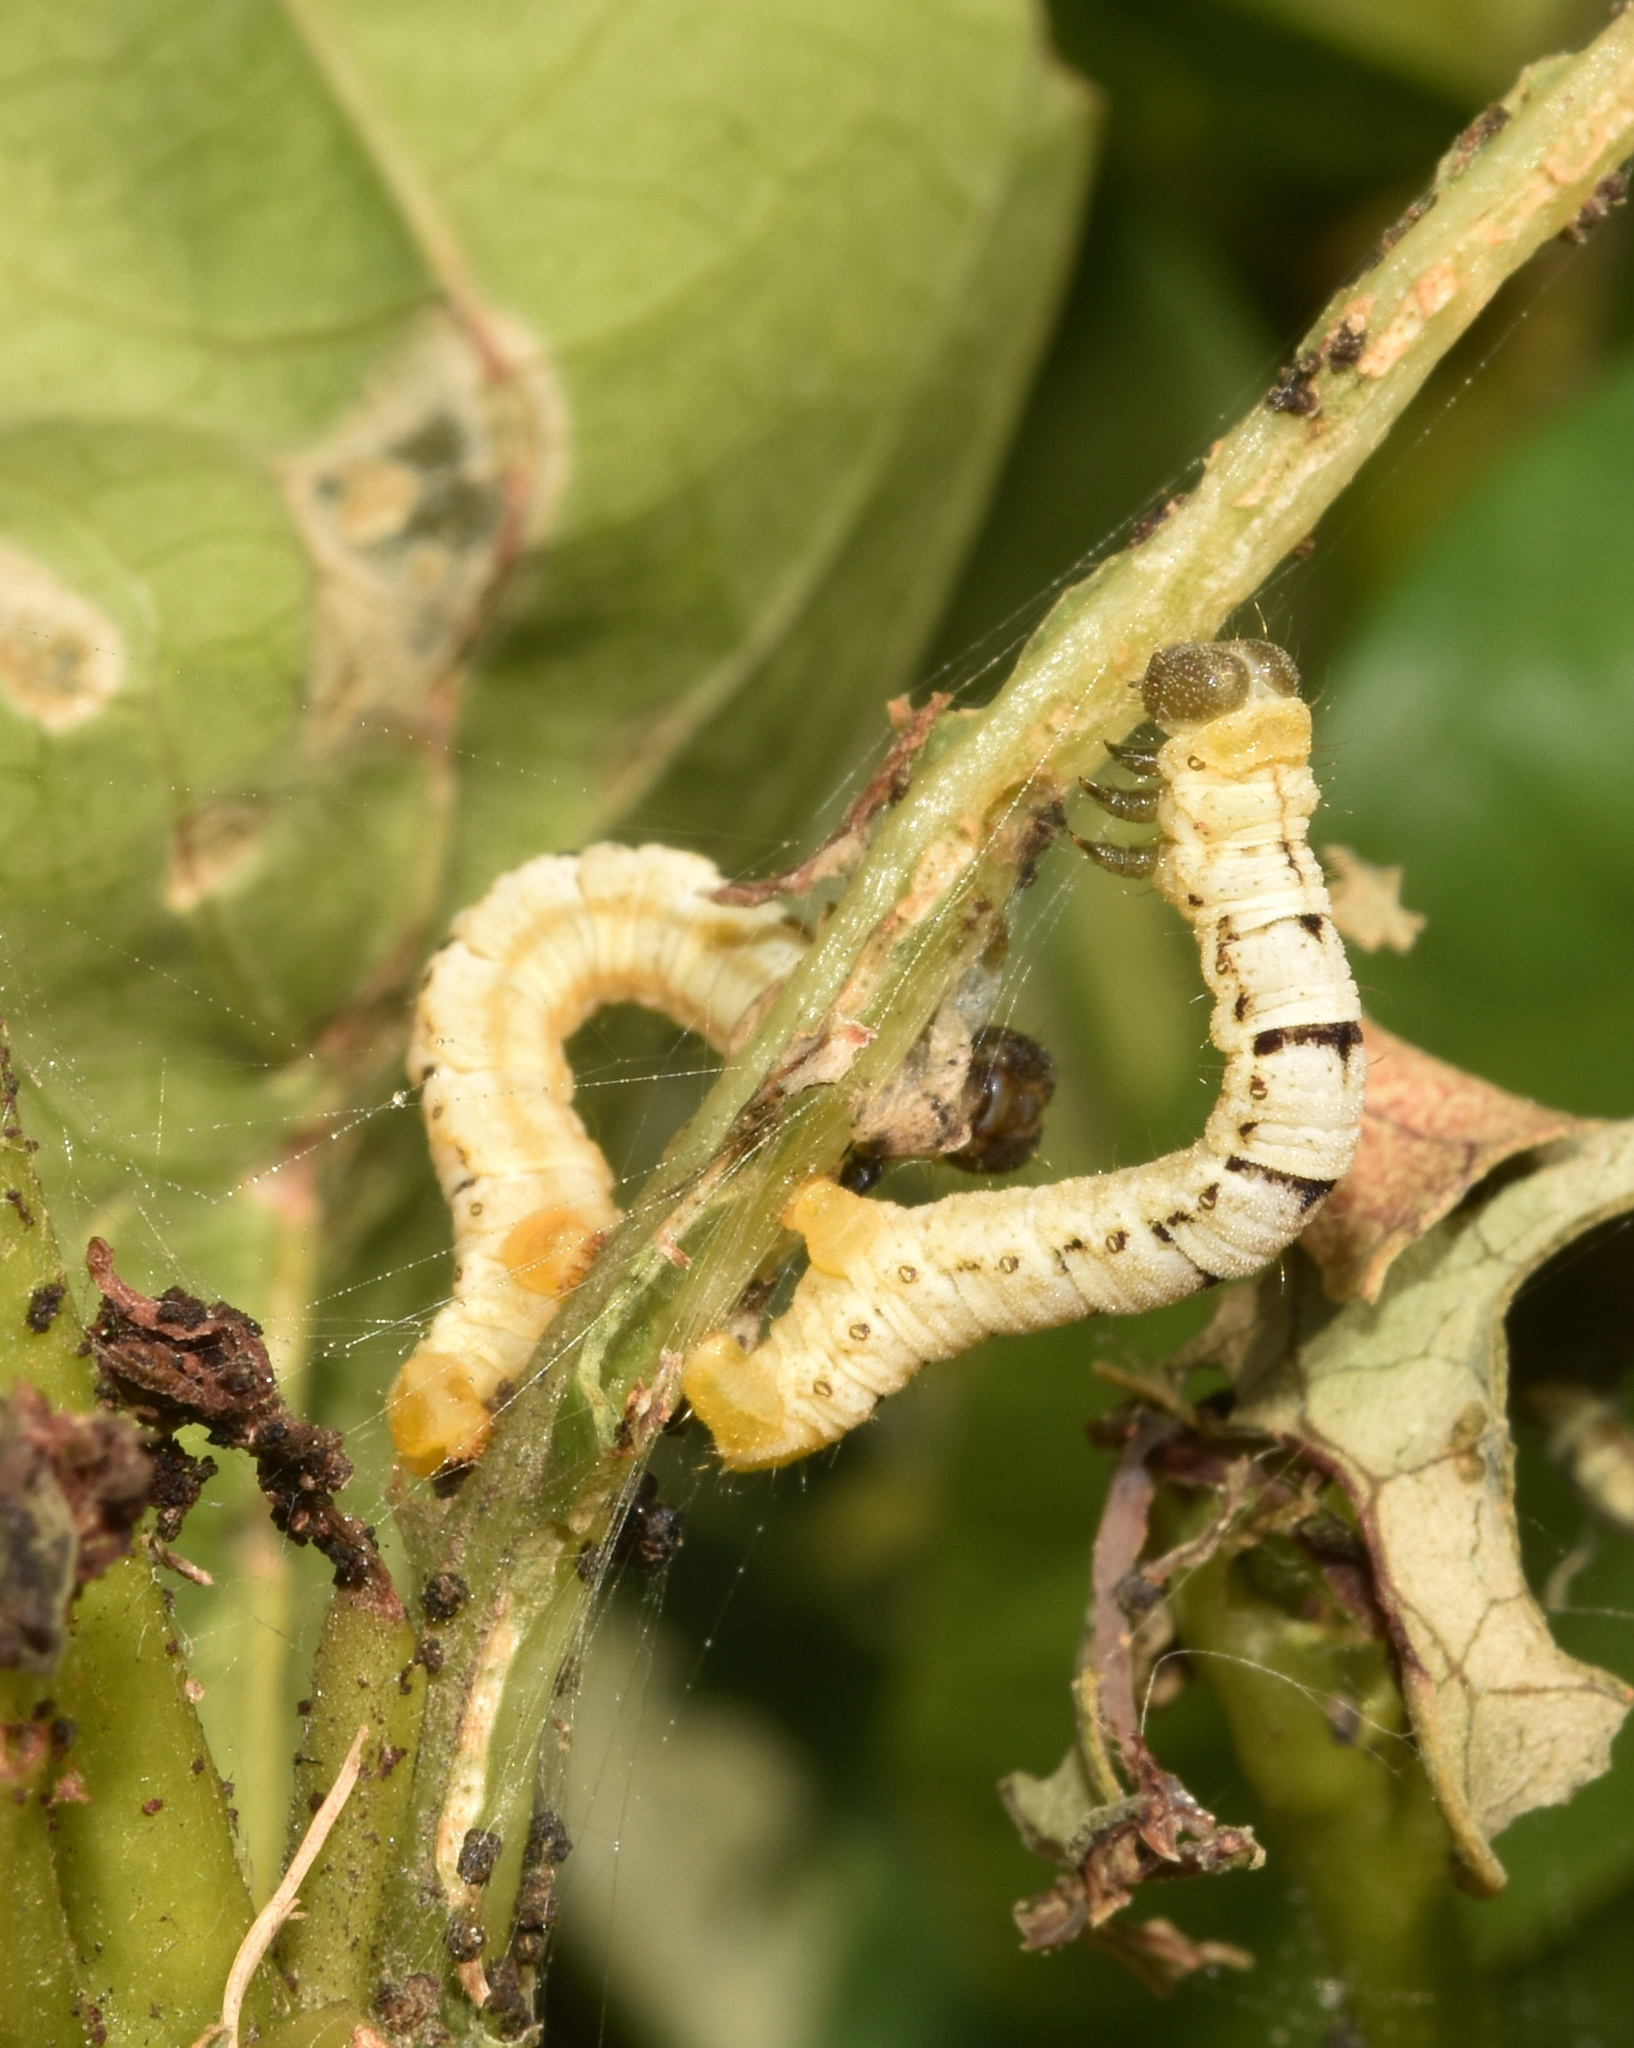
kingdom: Animalia
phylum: Arthropoda
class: Insecta
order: Lepidoptera
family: Geometridae
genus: Petovia
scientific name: Petovia marginata
